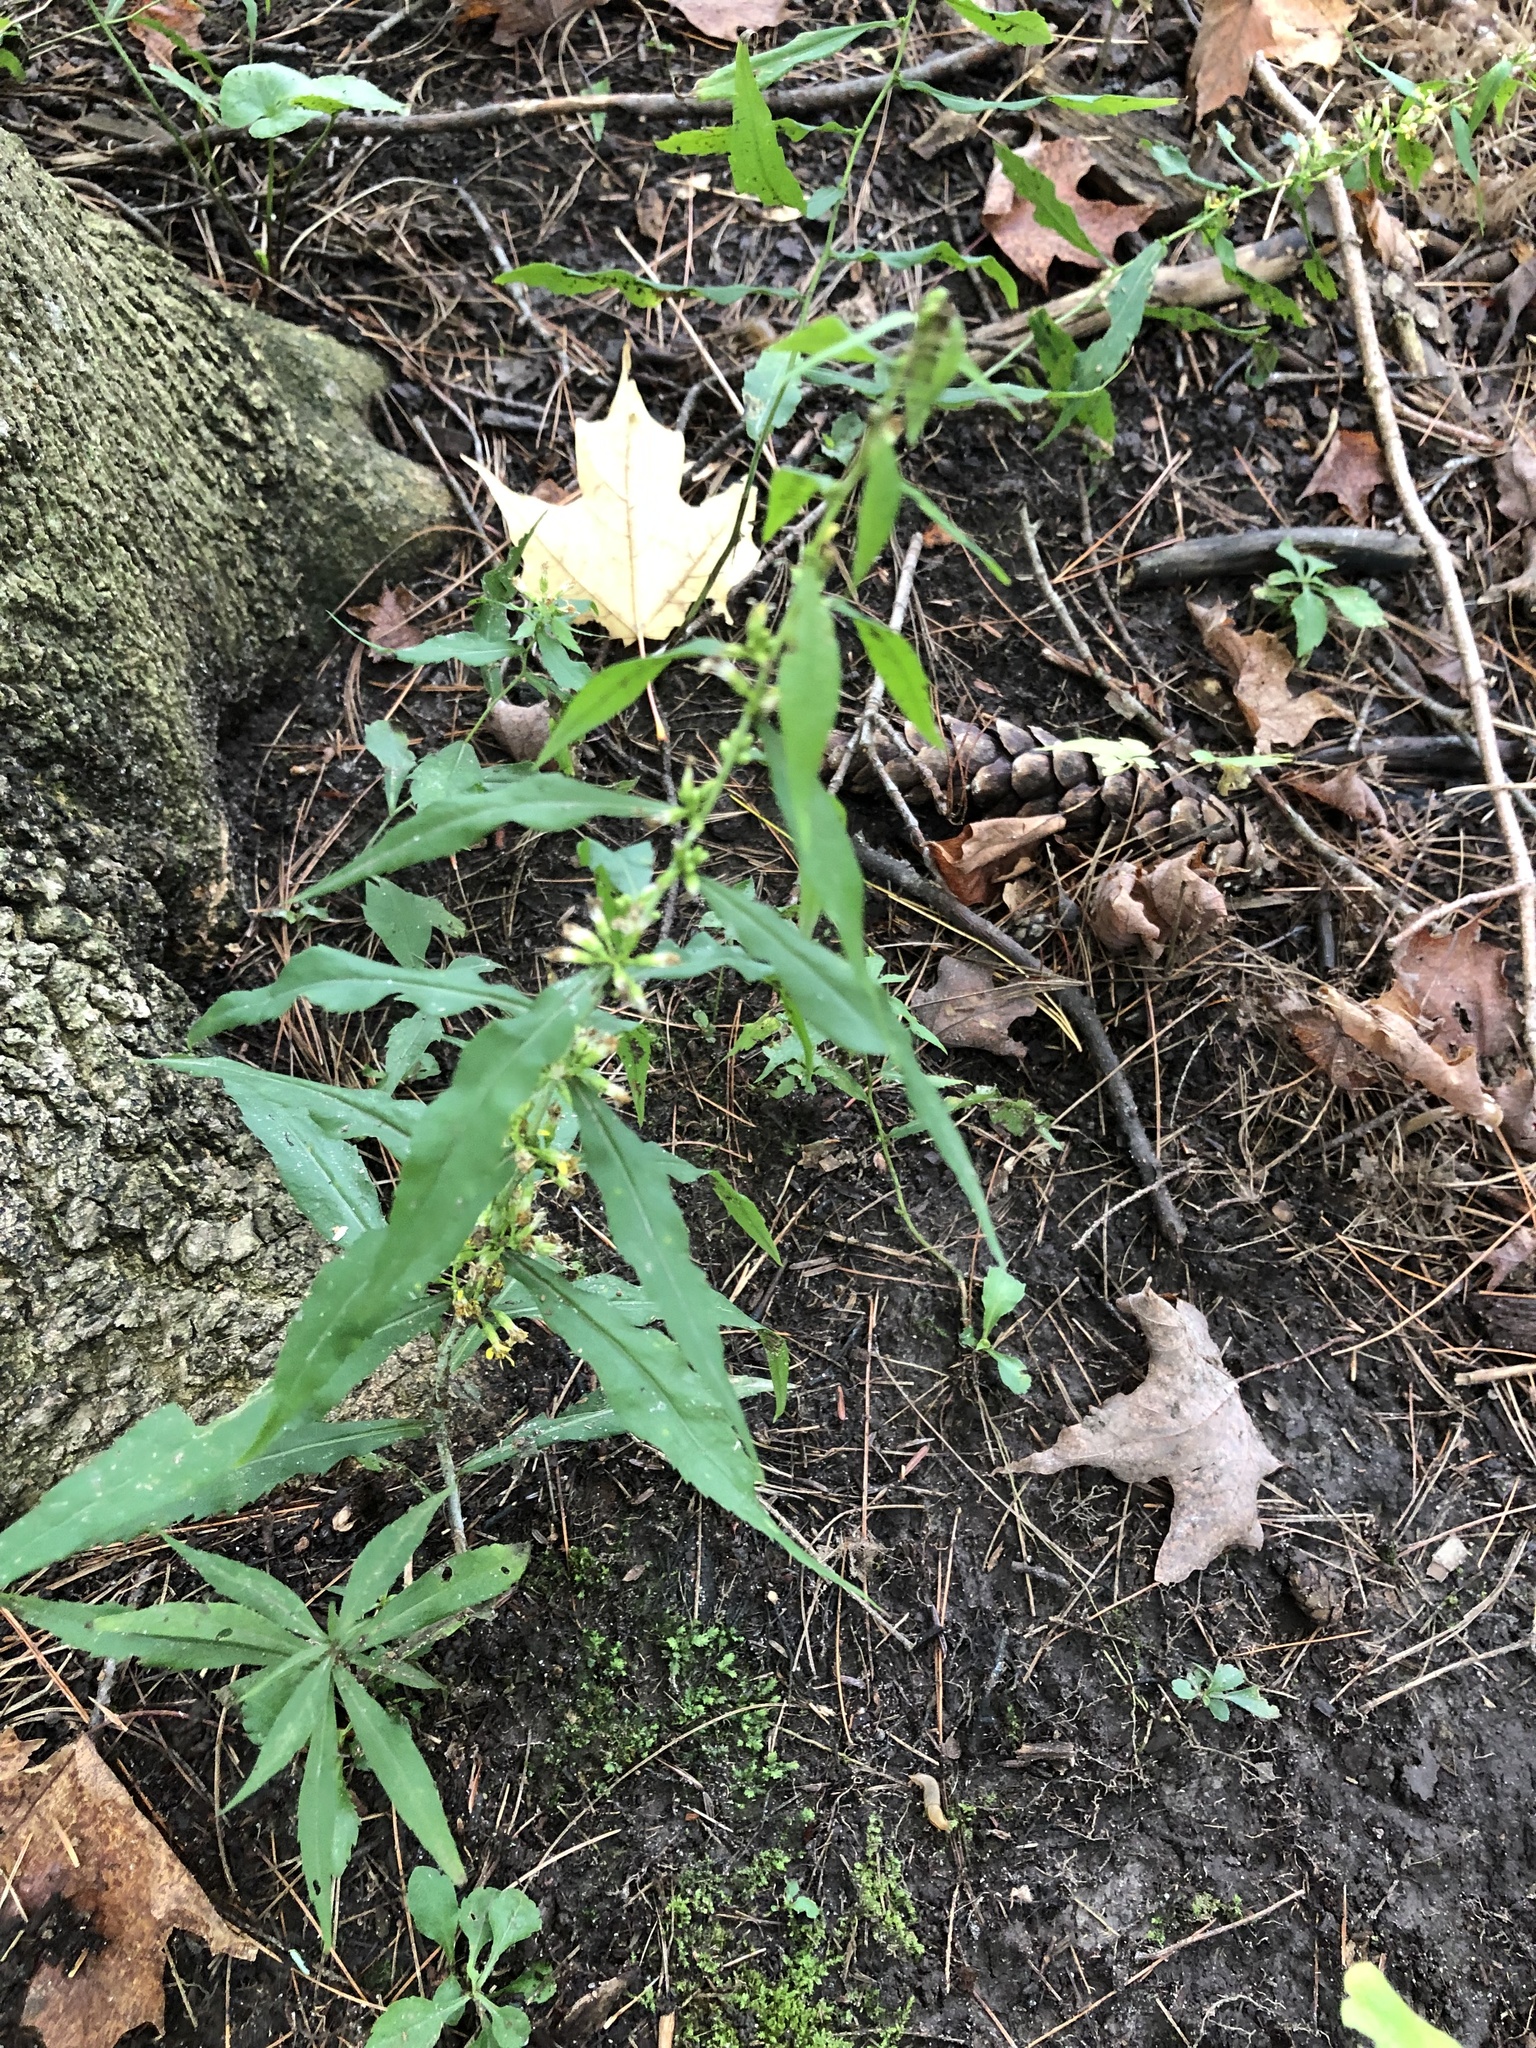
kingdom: Plantae
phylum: Tracheophyta
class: Magnoliopsida
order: Asterales
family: Asteraceae
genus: Solidago
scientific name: Solidago caesia
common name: Woodland goldenrod
